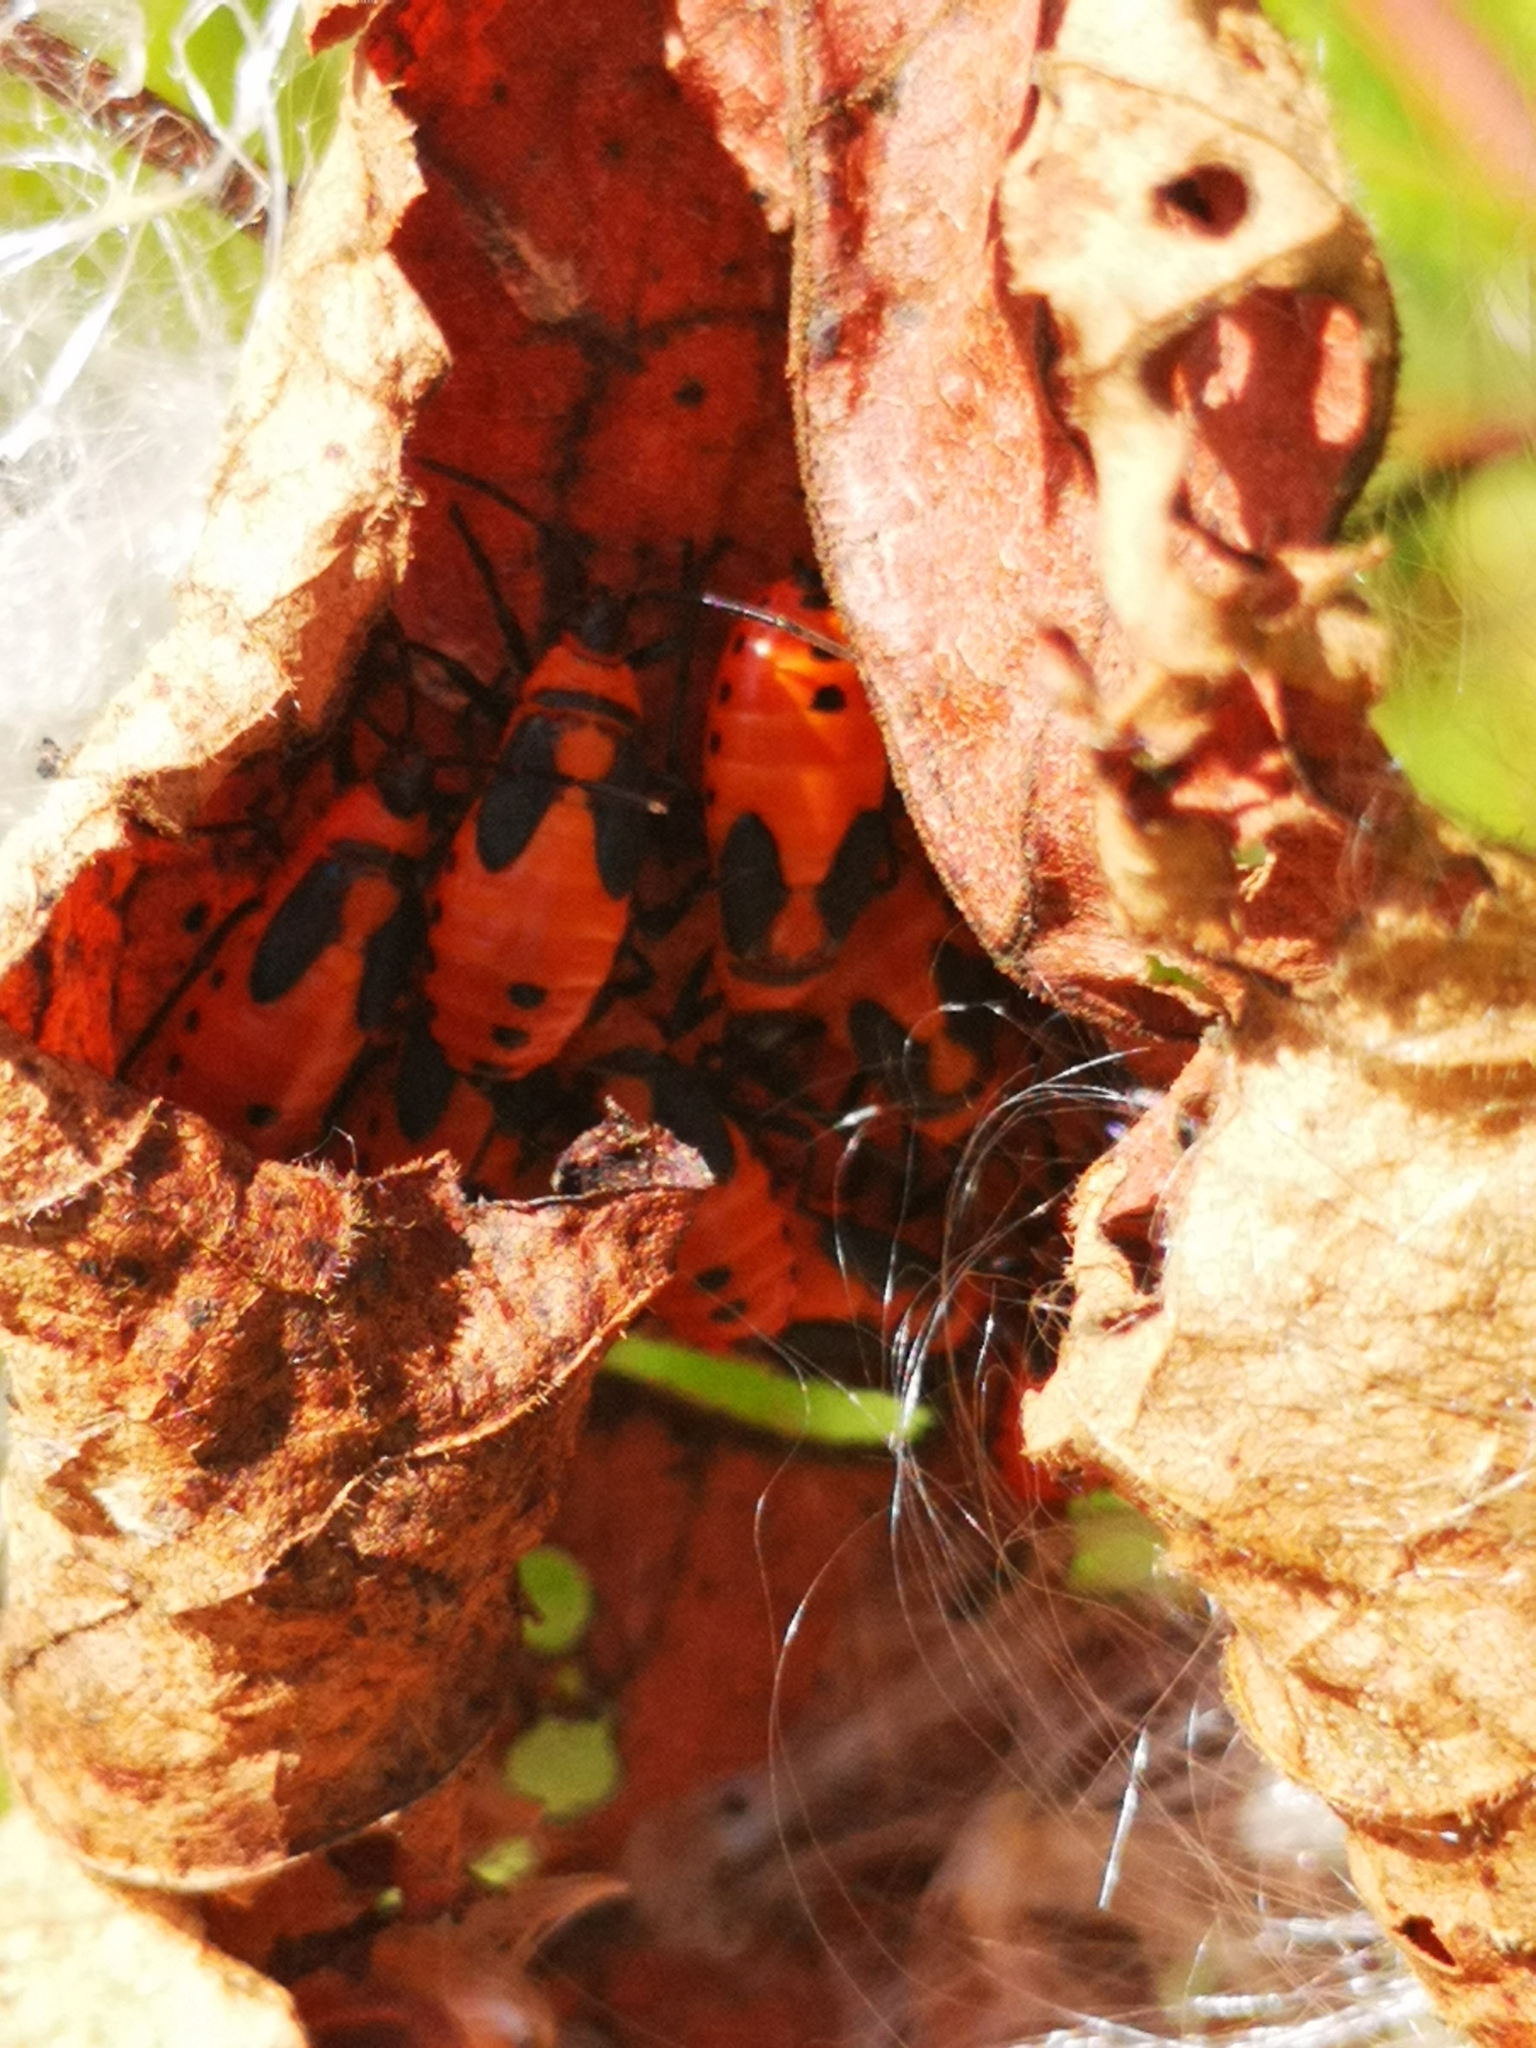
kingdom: Animalia
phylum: Arthropoda
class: Insecta
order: Hemiptera
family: Lygaeidae
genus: Oncopeltus
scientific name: Oncopeltus fasciatus
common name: Large milkweed bug
